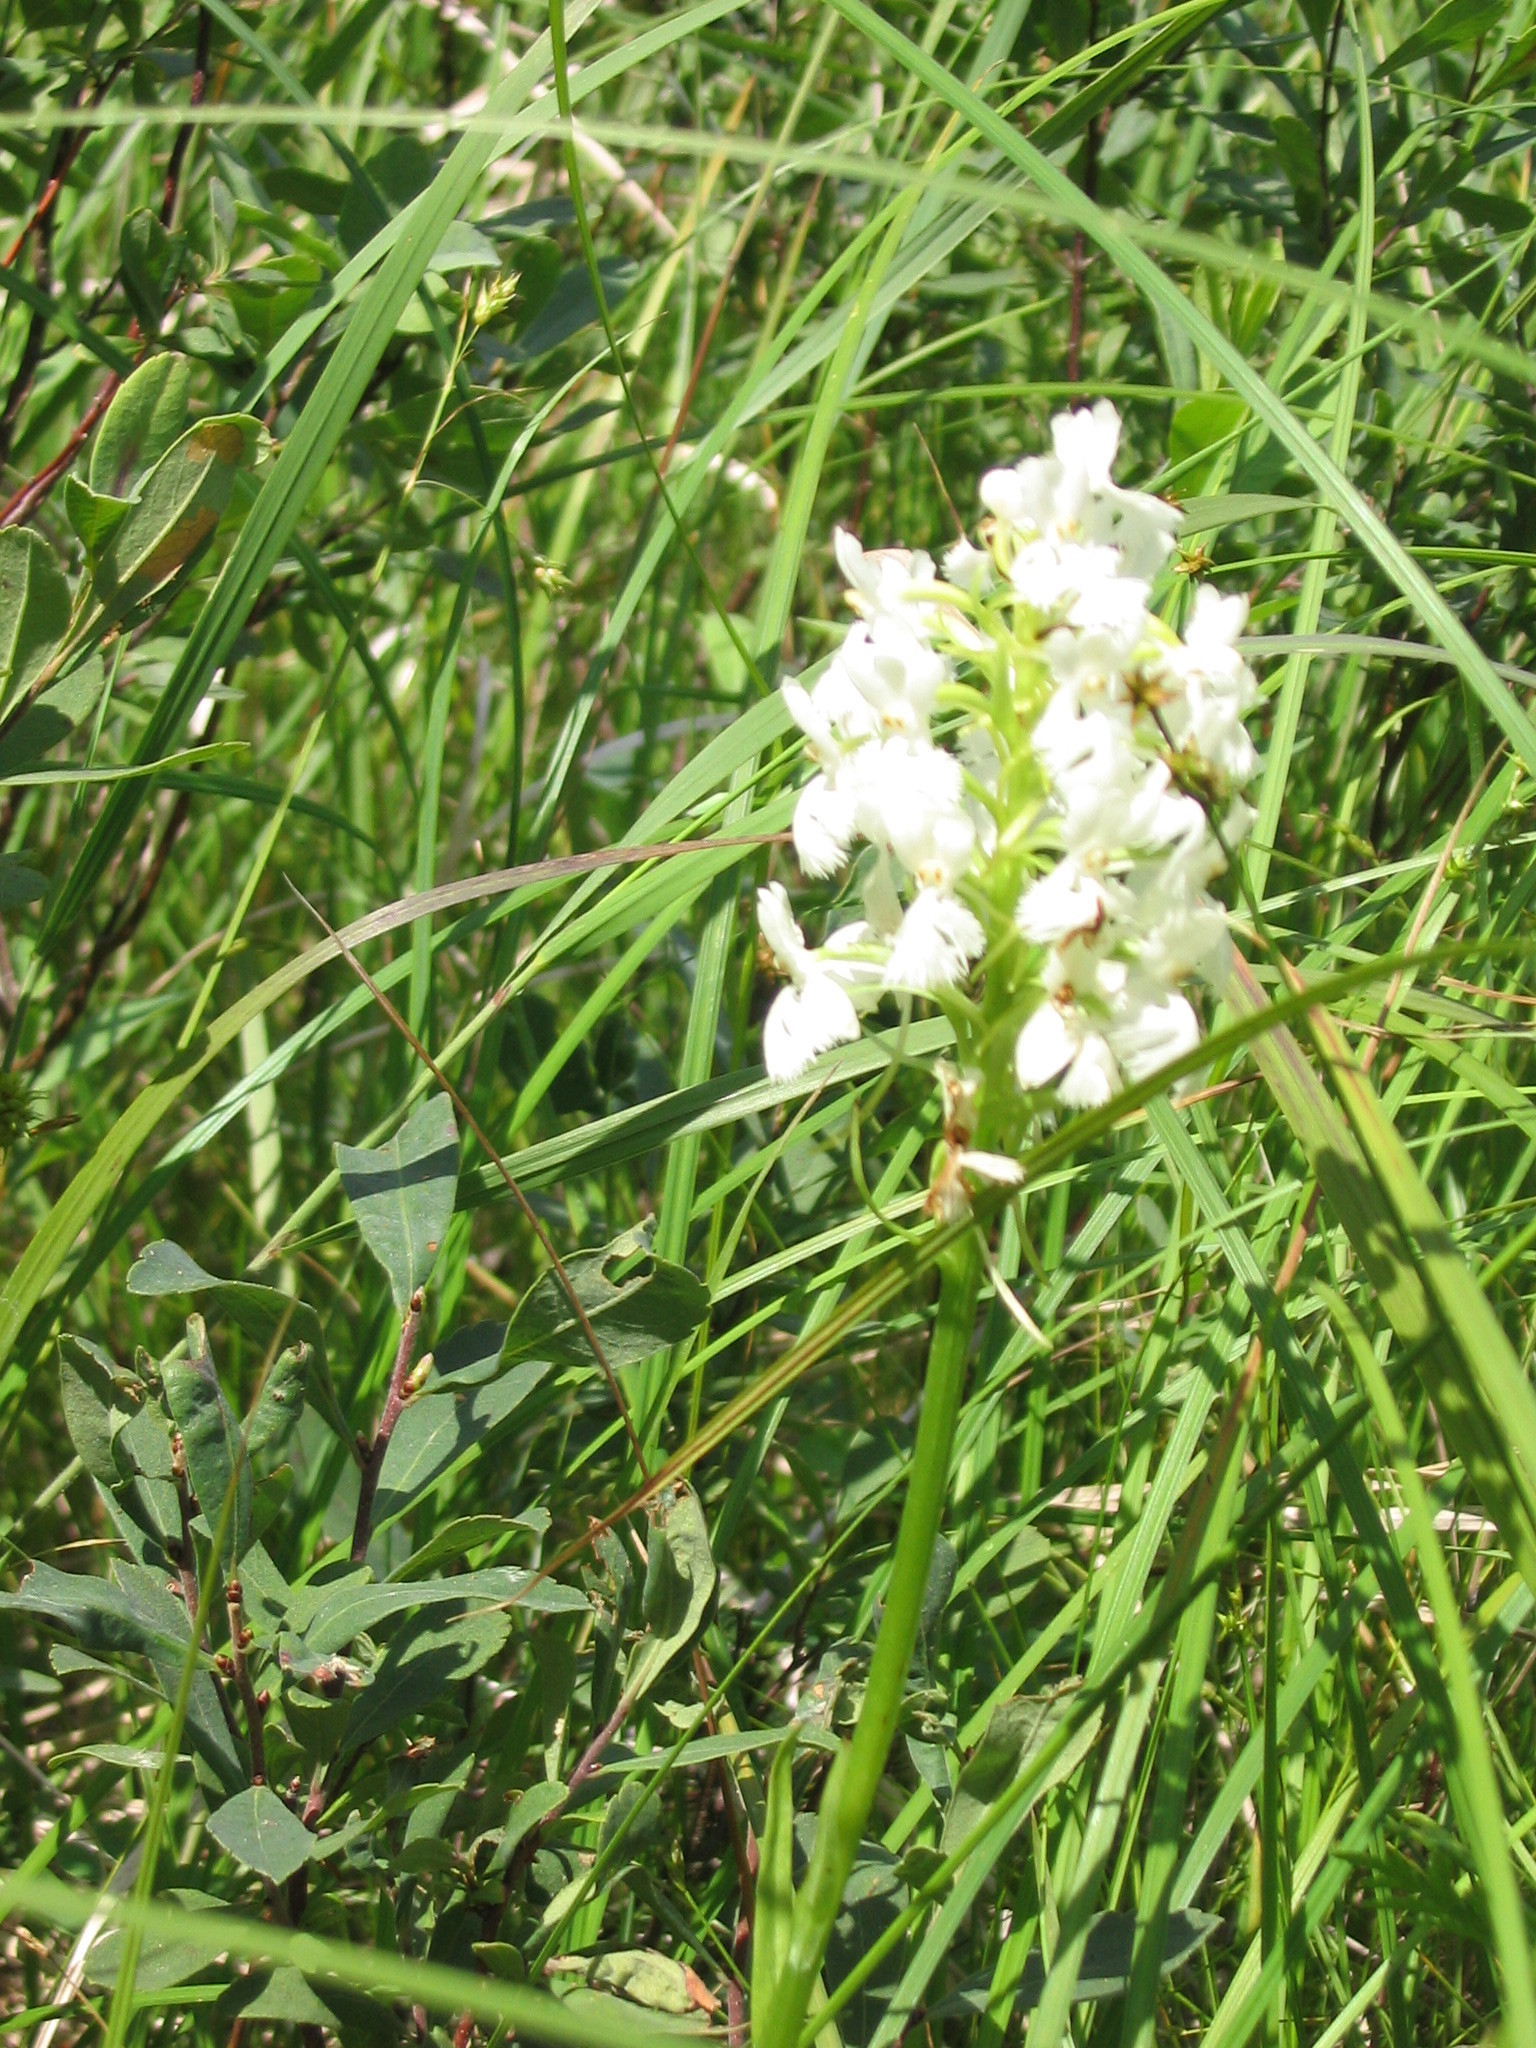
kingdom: Plantae
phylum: Tracheophyta
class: Liliopsida
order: Asparagales
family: Orchidaceae
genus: Platanthera
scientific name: Platanthera psycodes
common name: Lesser purple fringed orchid
